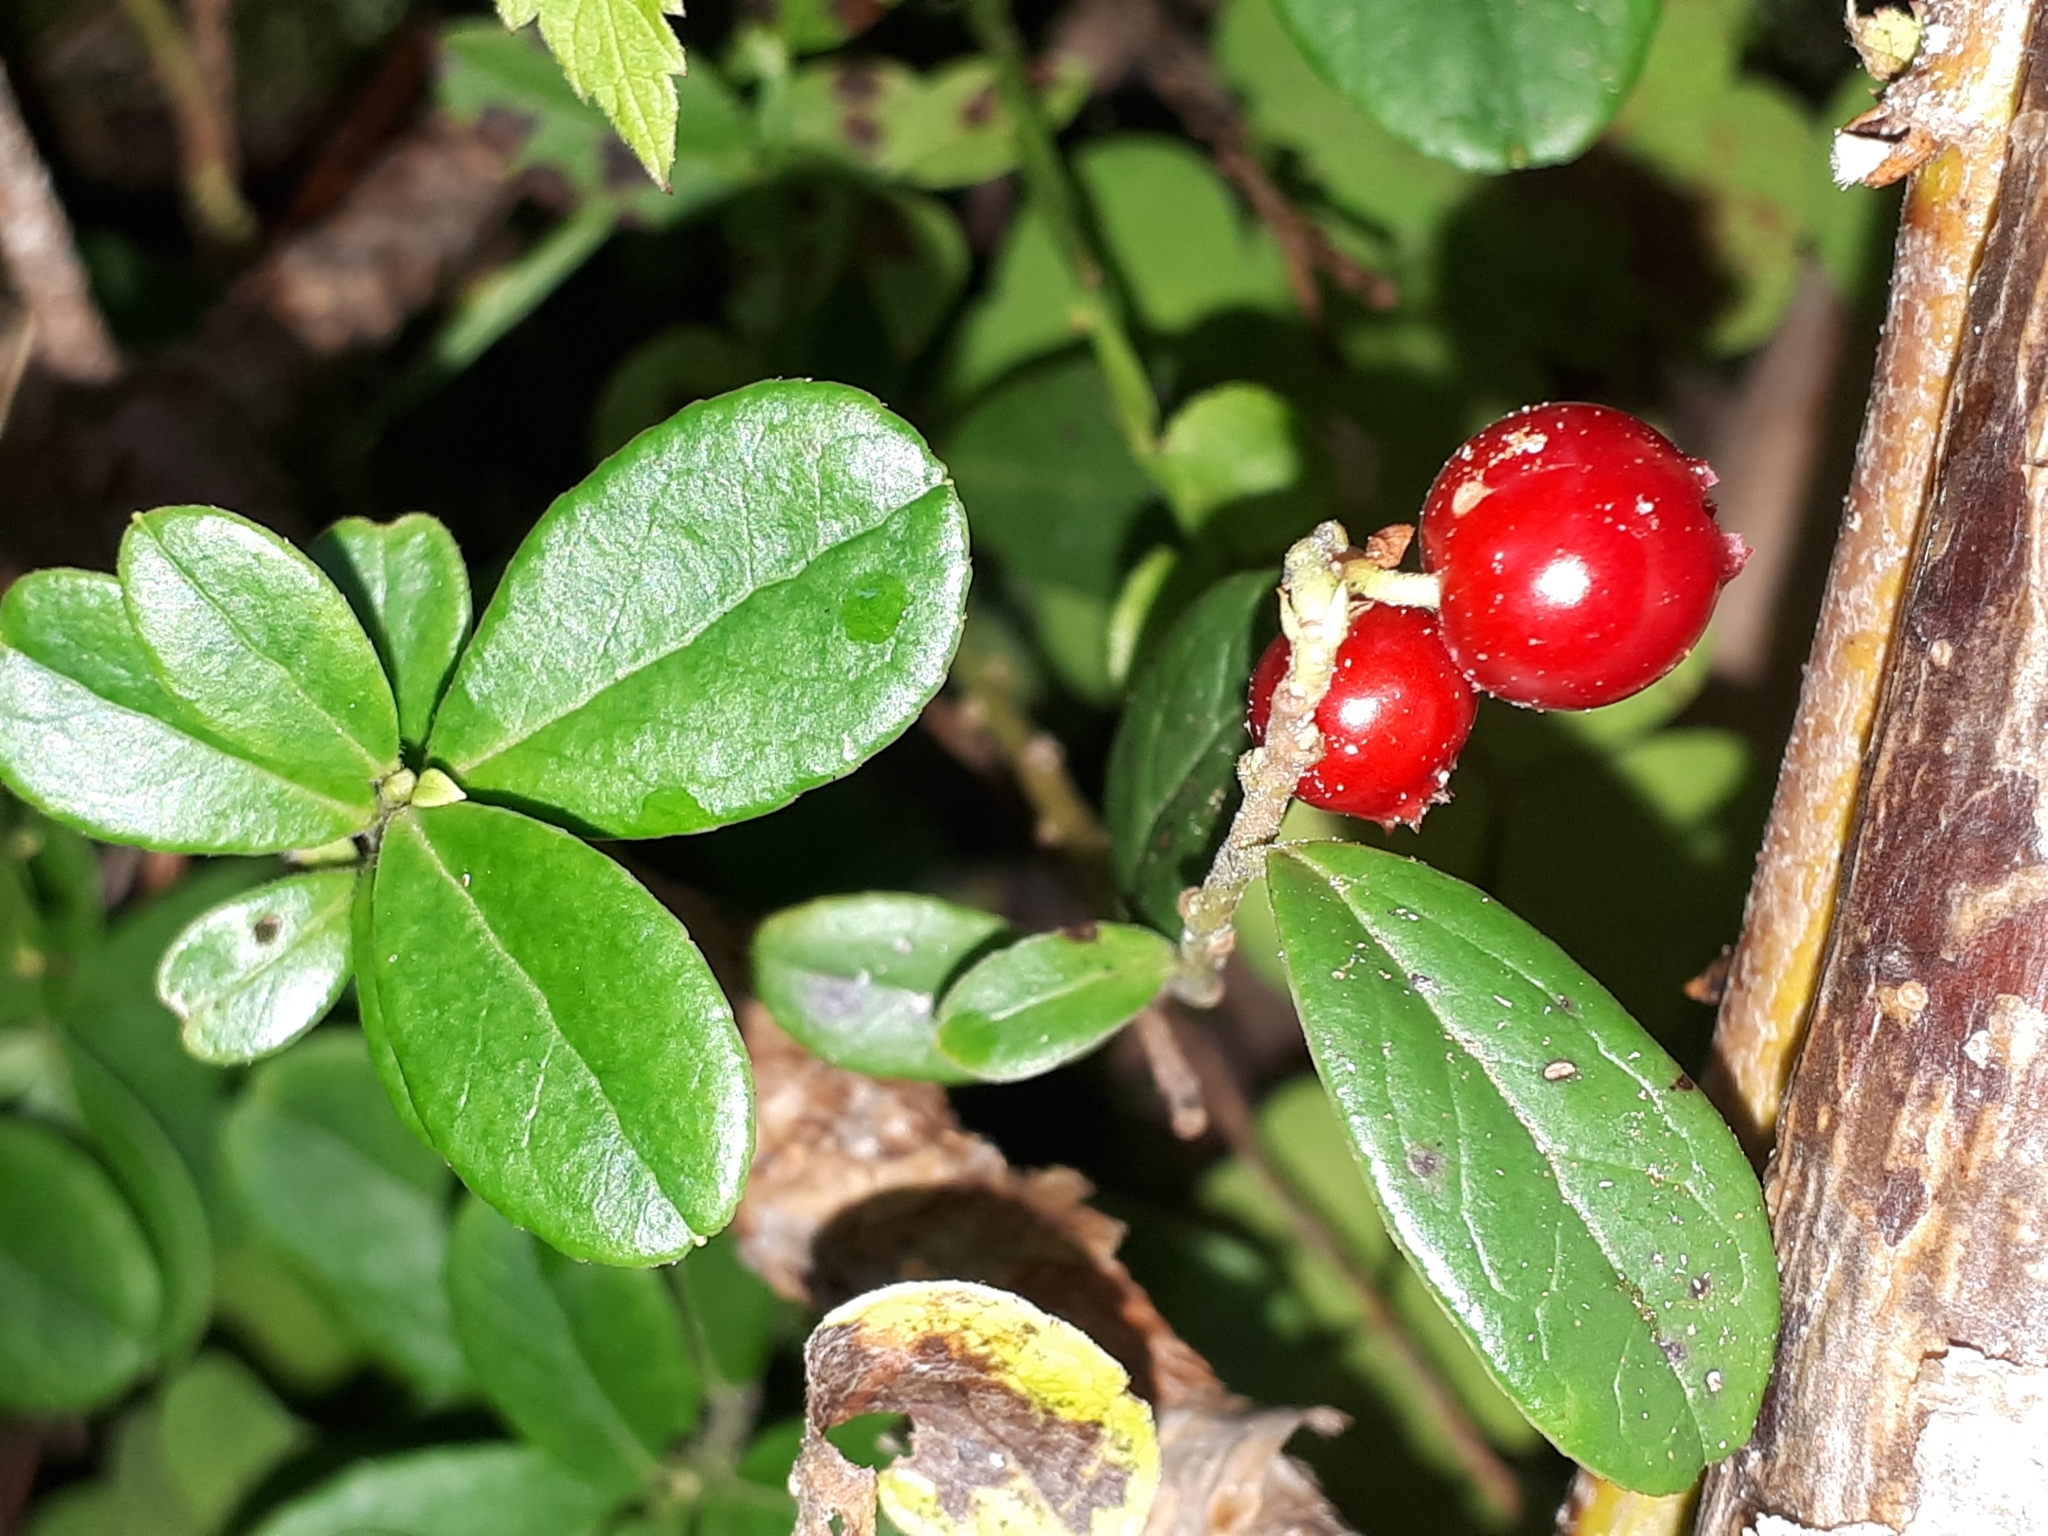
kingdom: Plantae
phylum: Tracheophyta
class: Magnoliopsida
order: Ericales
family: Ericaceae
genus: Vaccinium
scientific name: Vaccinium vitis-idaea
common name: Cowberry
